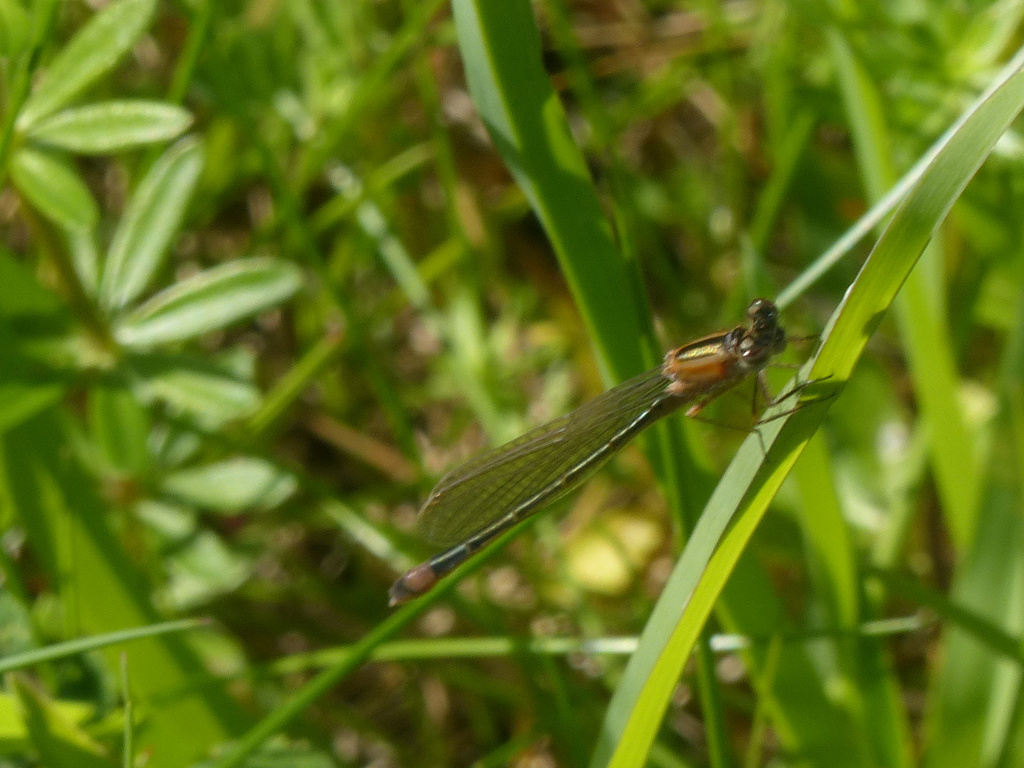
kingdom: Animalia
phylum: Arthropoda
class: Insecta
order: Odonata
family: Coenagrionidae
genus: Ischnura
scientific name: Ischnura elegans
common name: Blue-tailed damselfly
